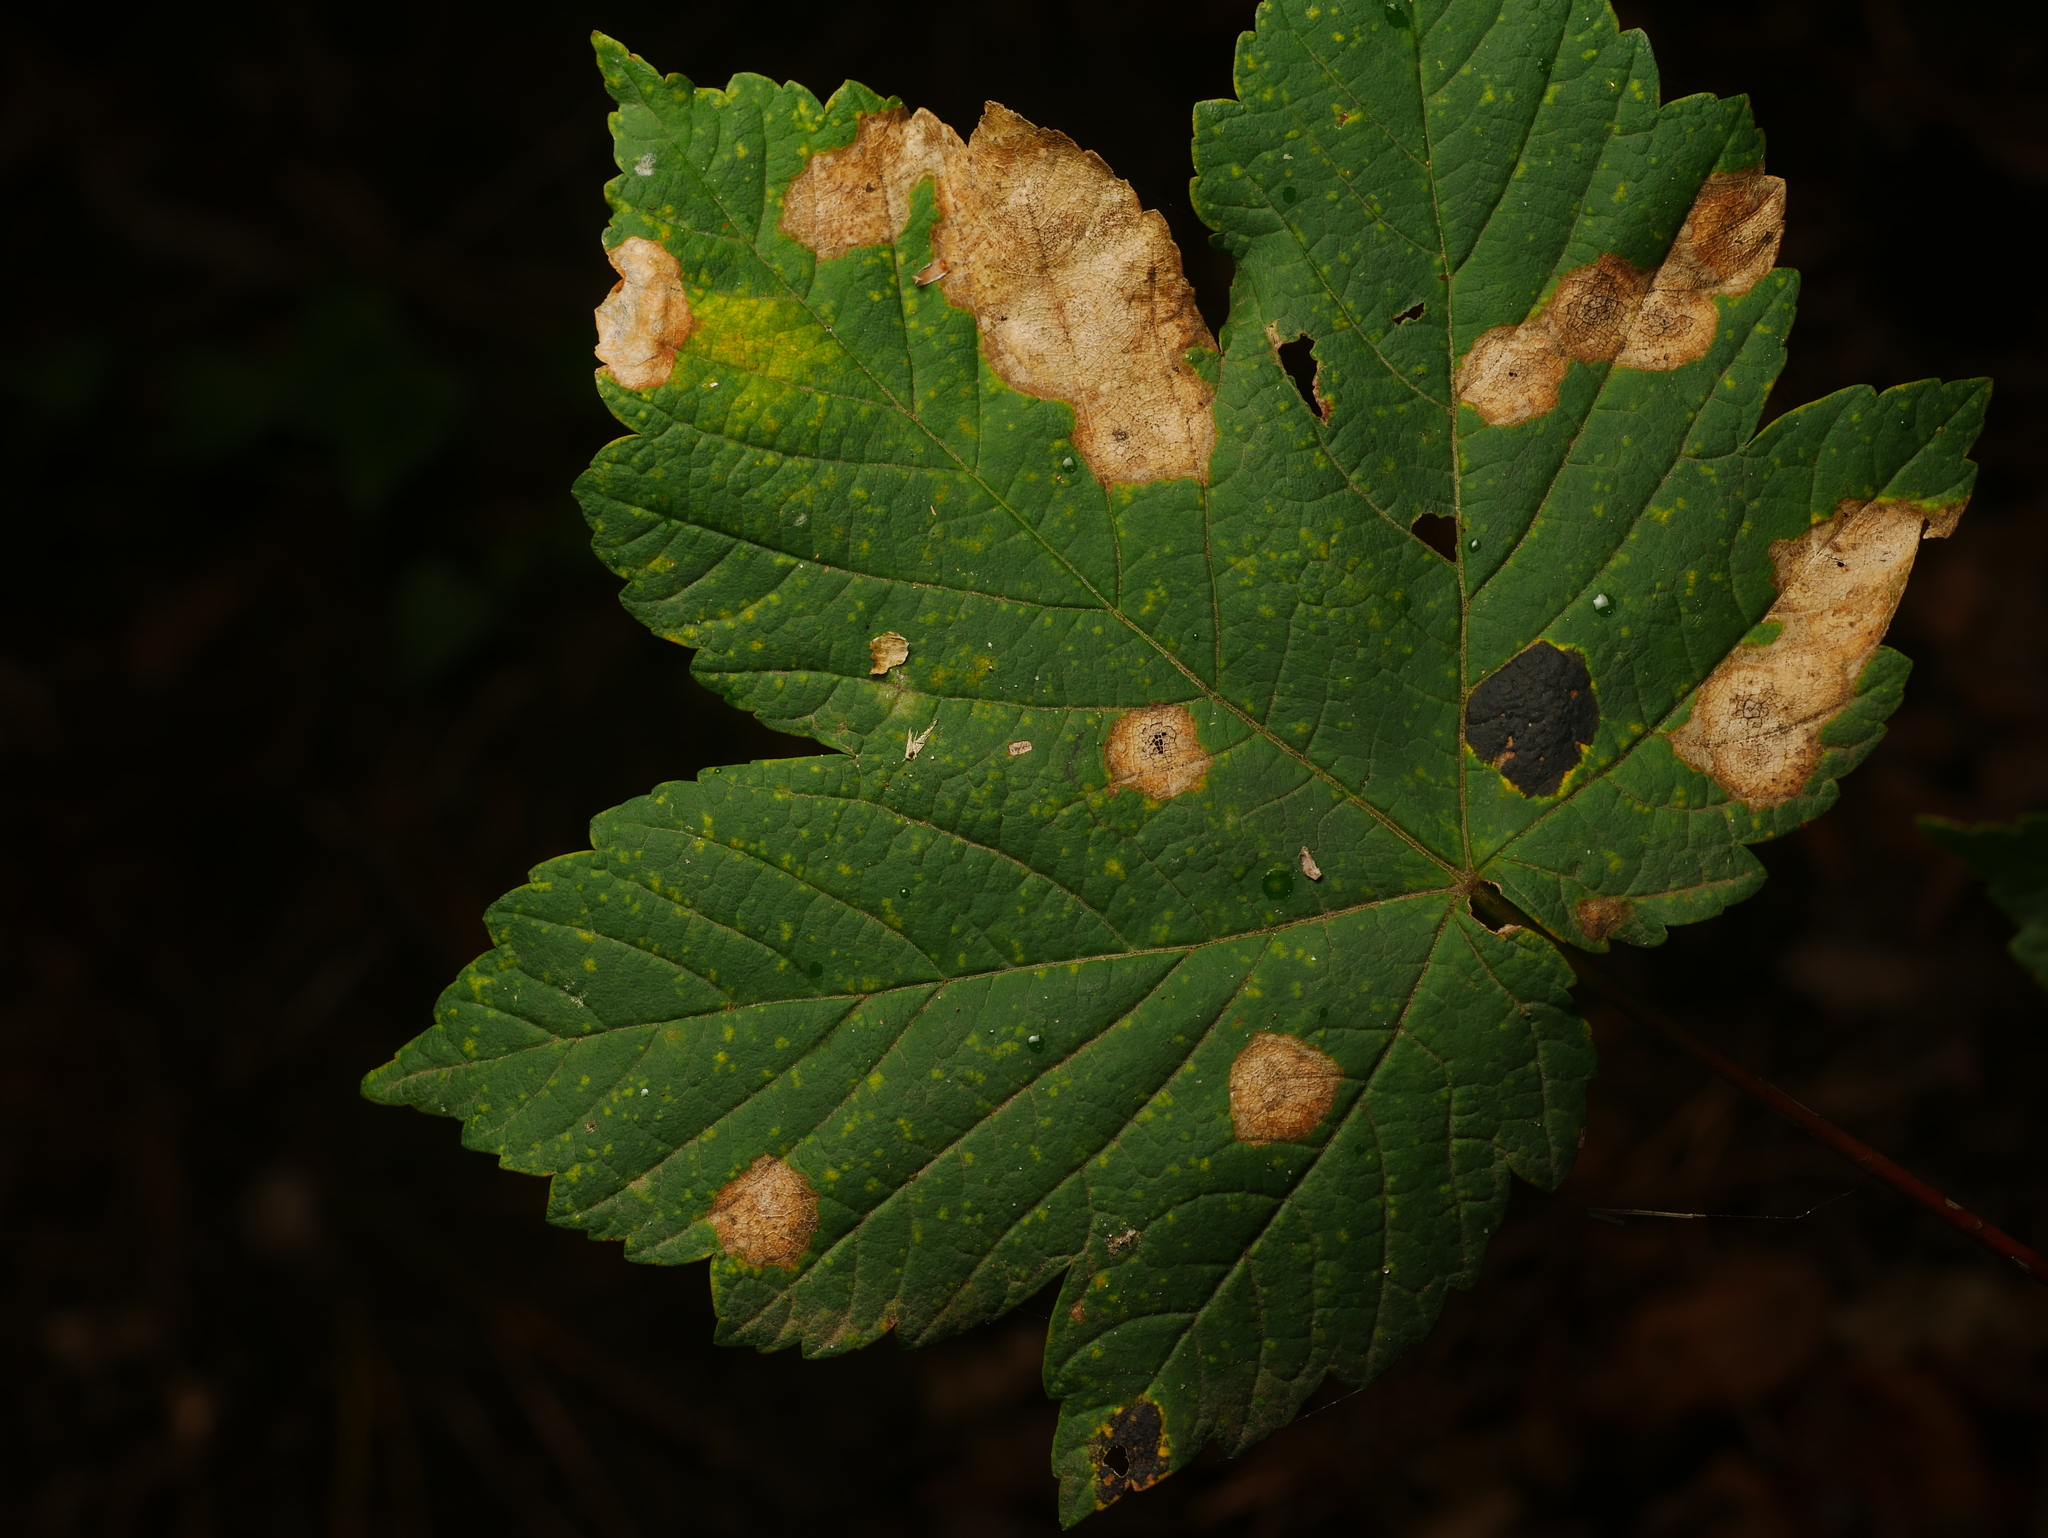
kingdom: Plantae
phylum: Tracheophyta
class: Magnoliopsida
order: Sapindales
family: Sapindaceae
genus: Acer
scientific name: Acer pseudoplatanus
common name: Sycamore
